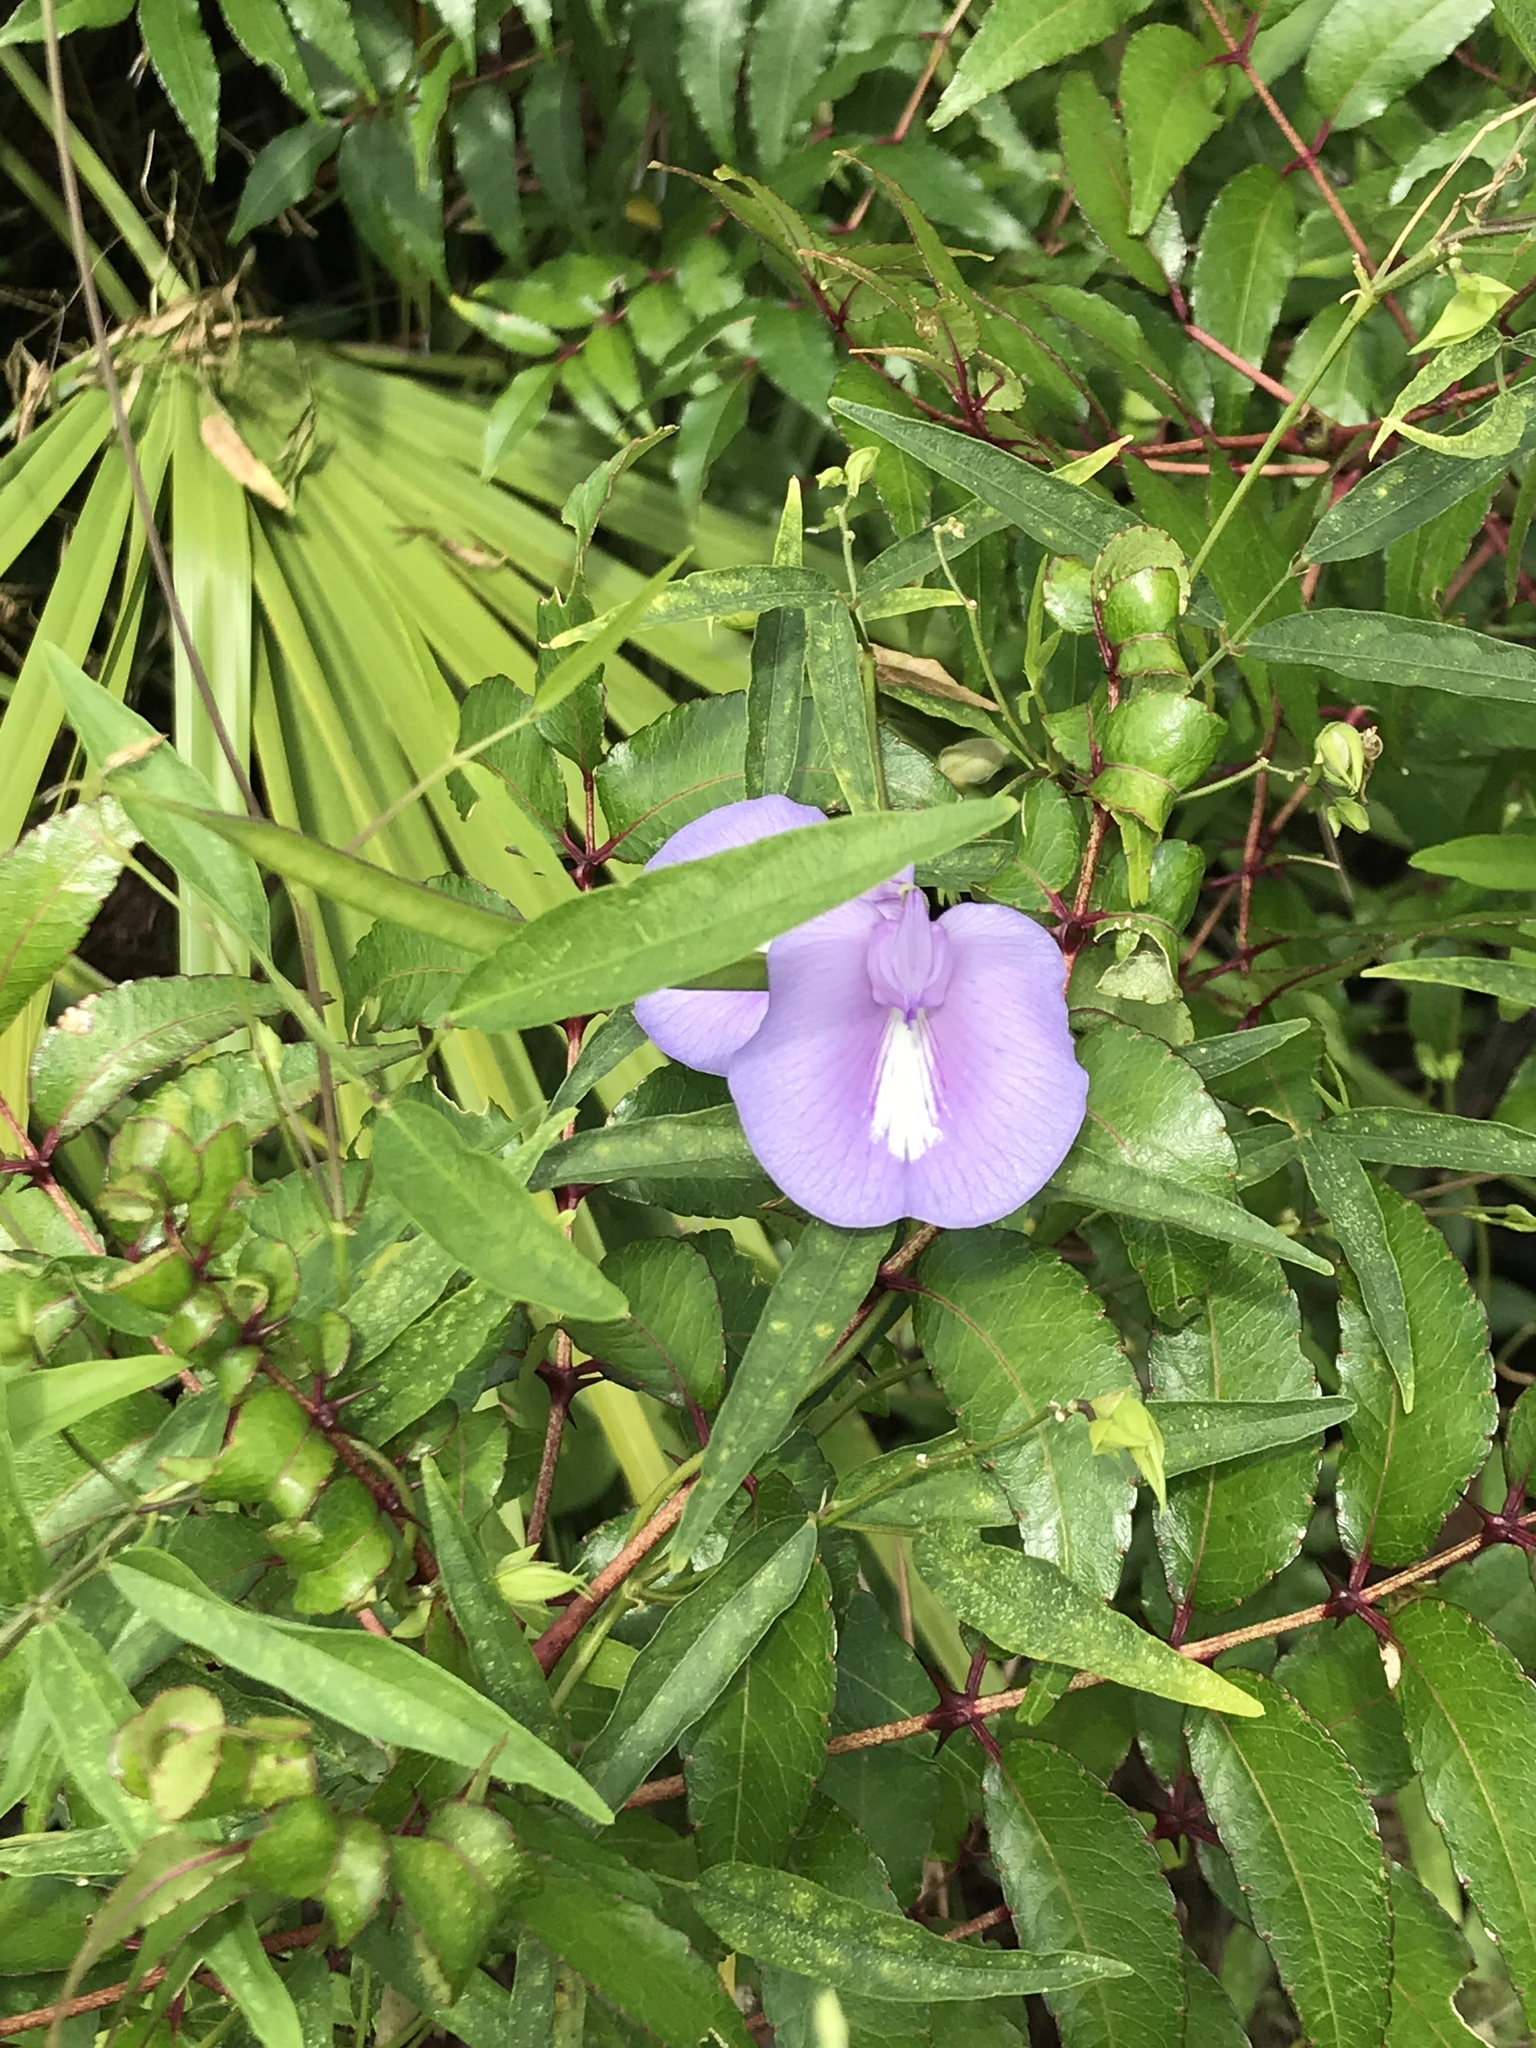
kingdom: Plantae
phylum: Tracheophyta
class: Magnoliopsida
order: Fabales
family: Fabaceae
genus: Centrosema
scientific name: Centrosema virginianum
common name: Butterfly-pea
